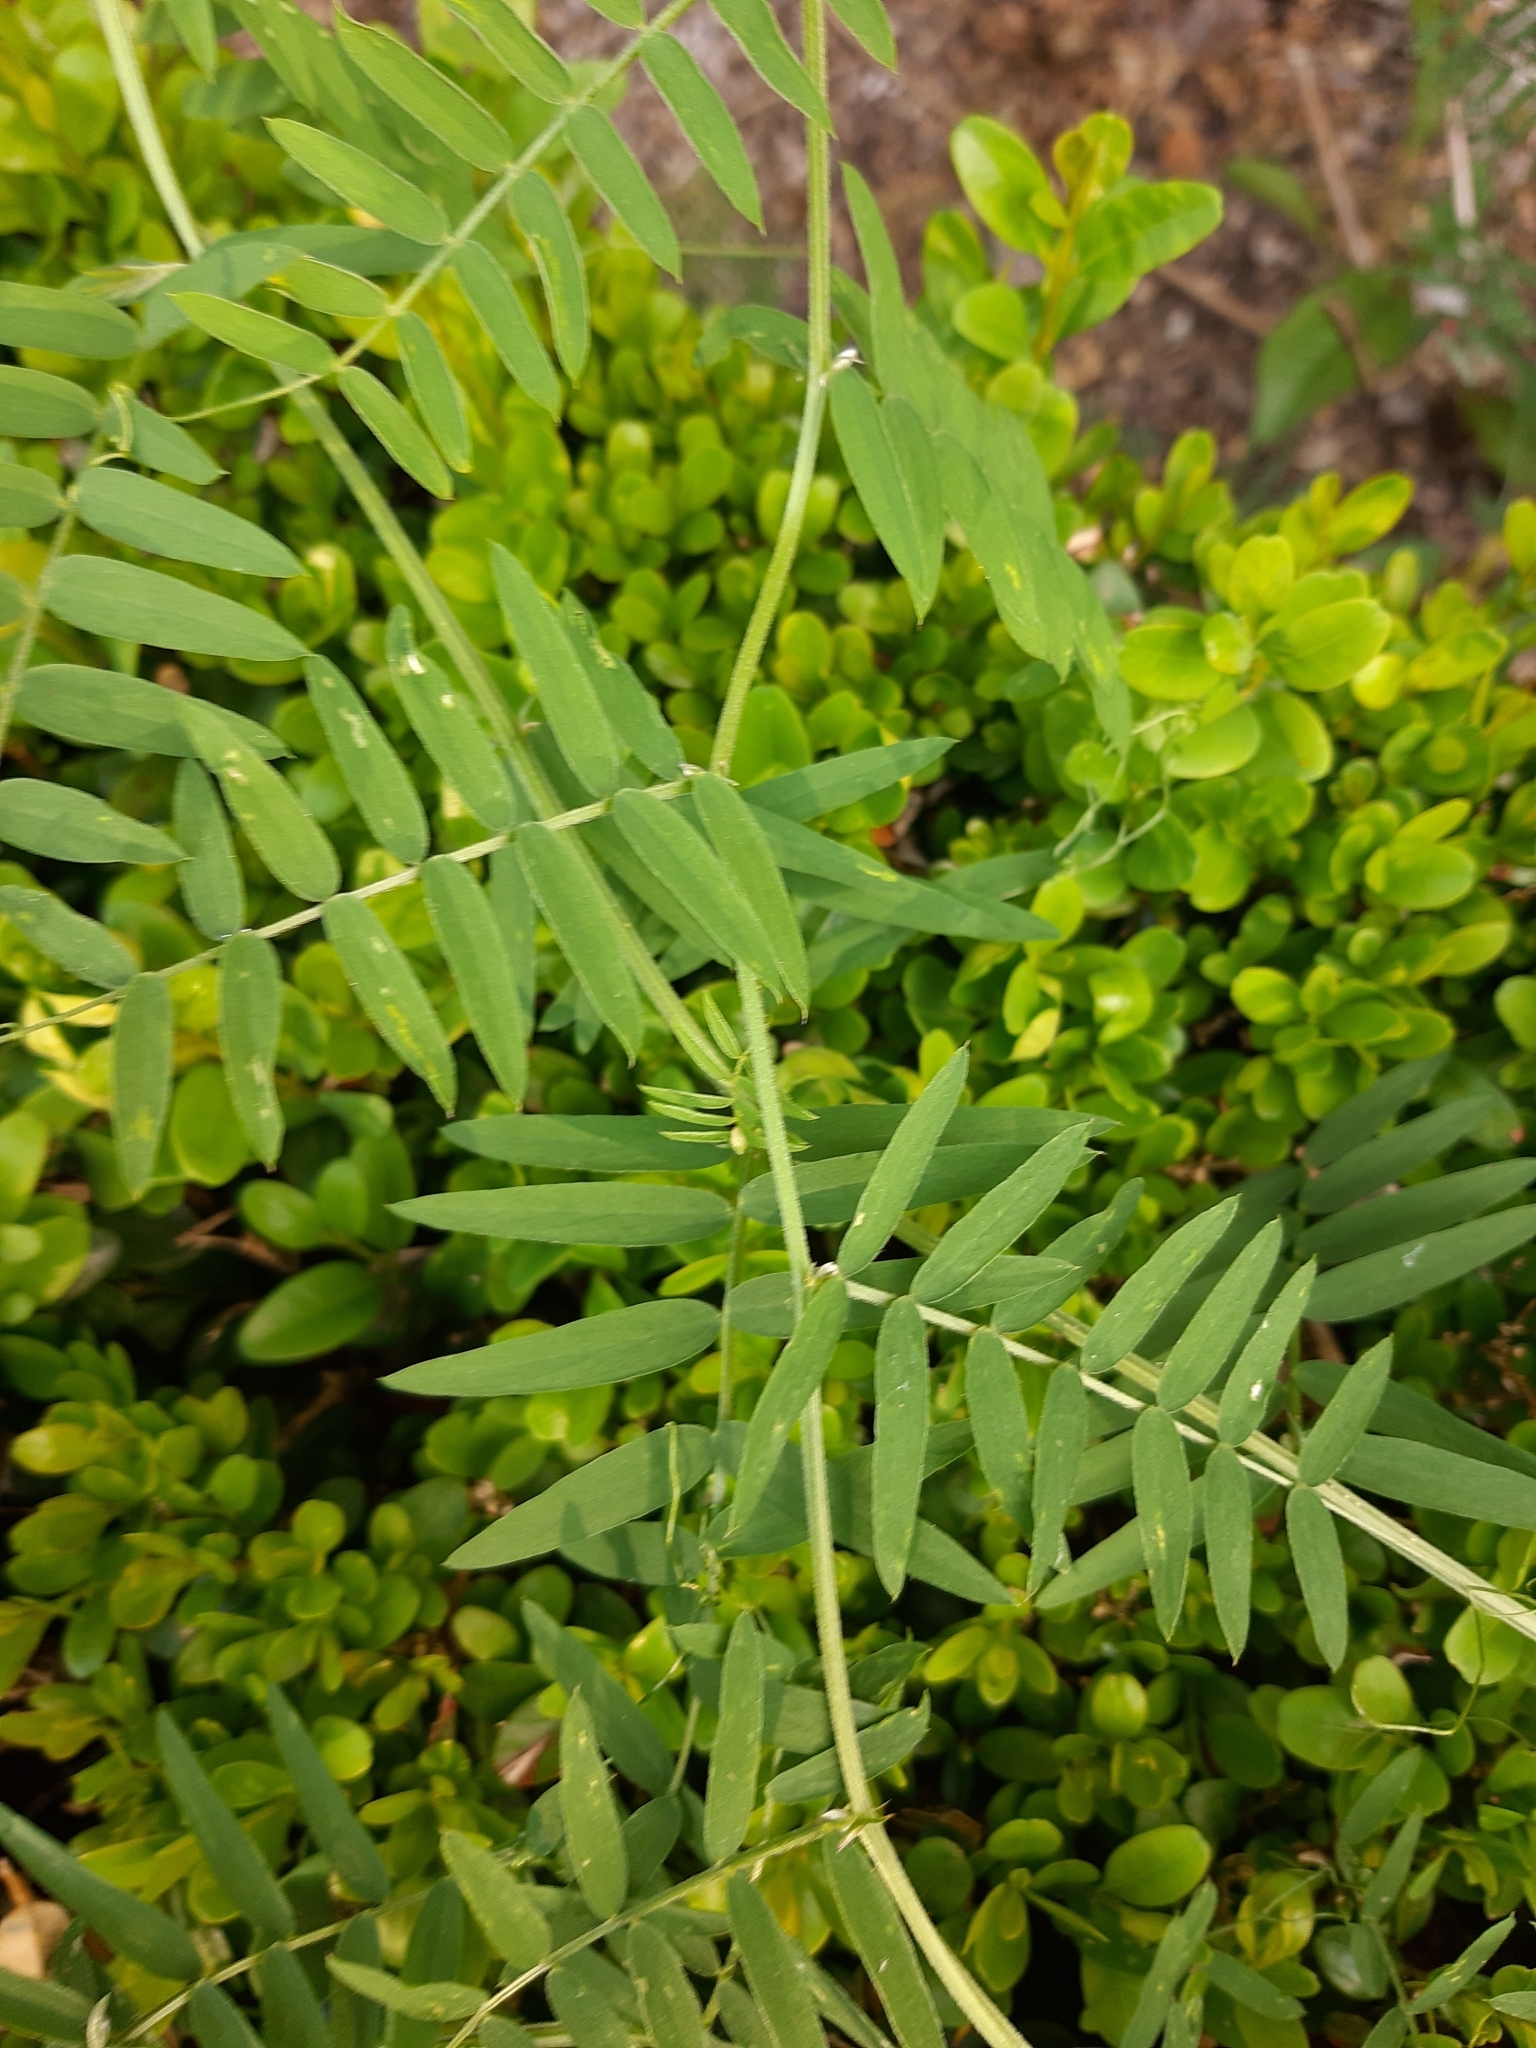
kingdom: Plantae
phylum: Tracheophyta
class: Magnoliopsida
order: Fabales
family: Fabaceae
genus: Vicia
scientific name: Vicia sativa
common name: Garden vetch
